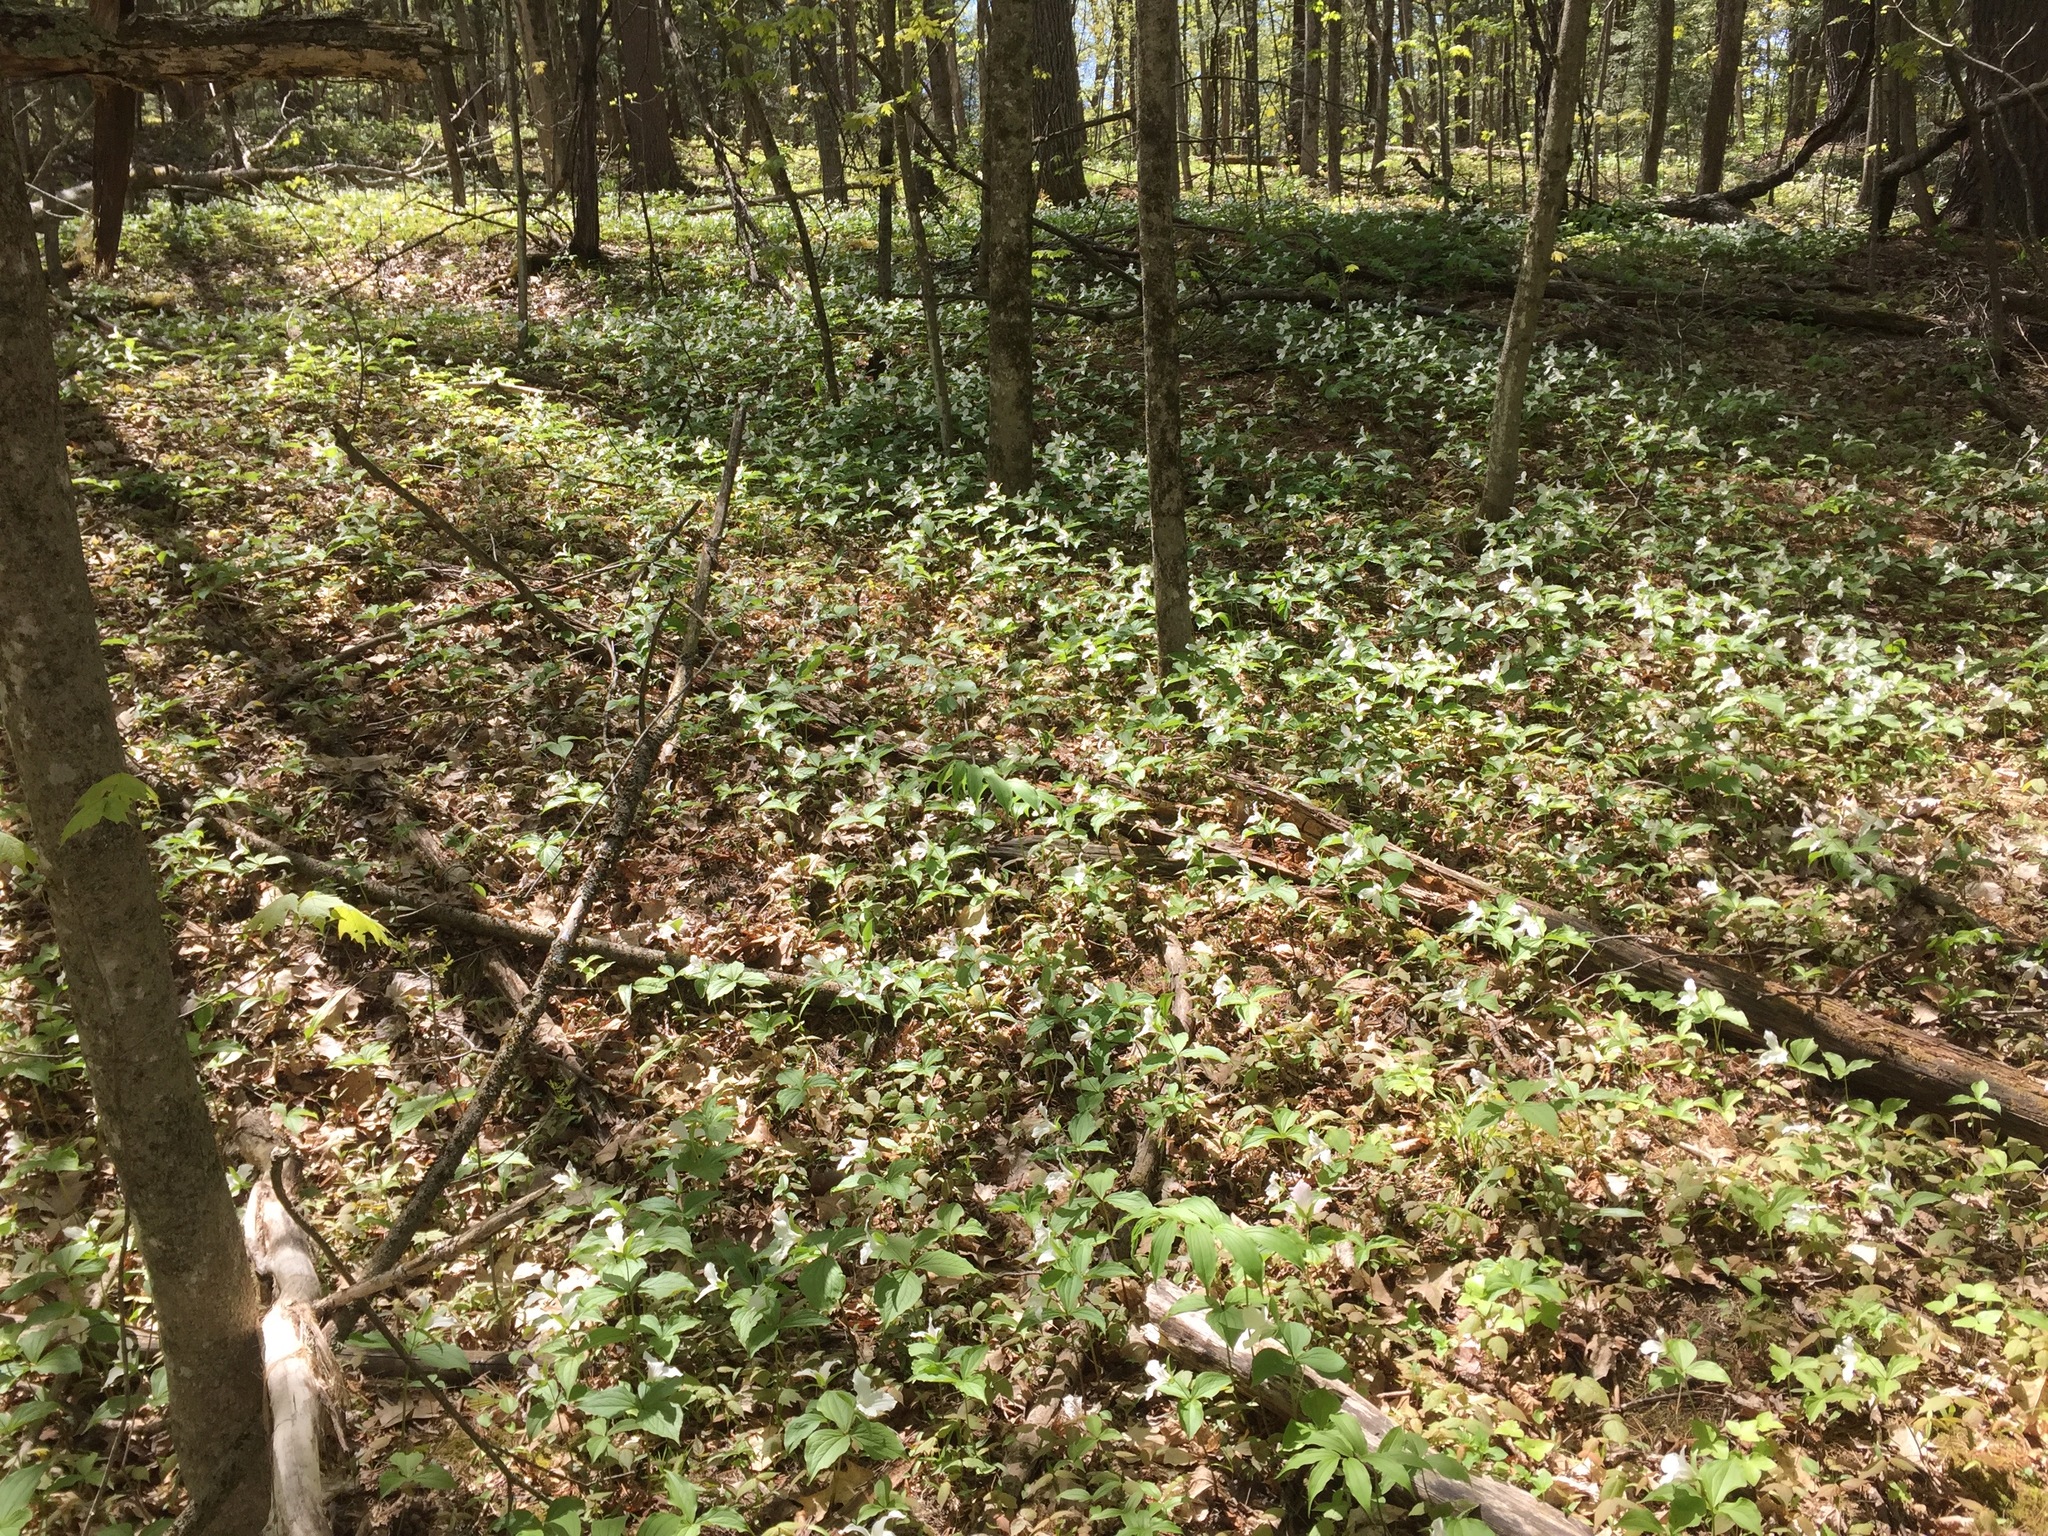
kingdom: Plantae
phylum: Tracheophyta
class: Liliopsida
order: Liliales
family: Melanthiaceae
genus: Trillium
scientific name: Trillium grandiflorum
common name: Great white trillium
